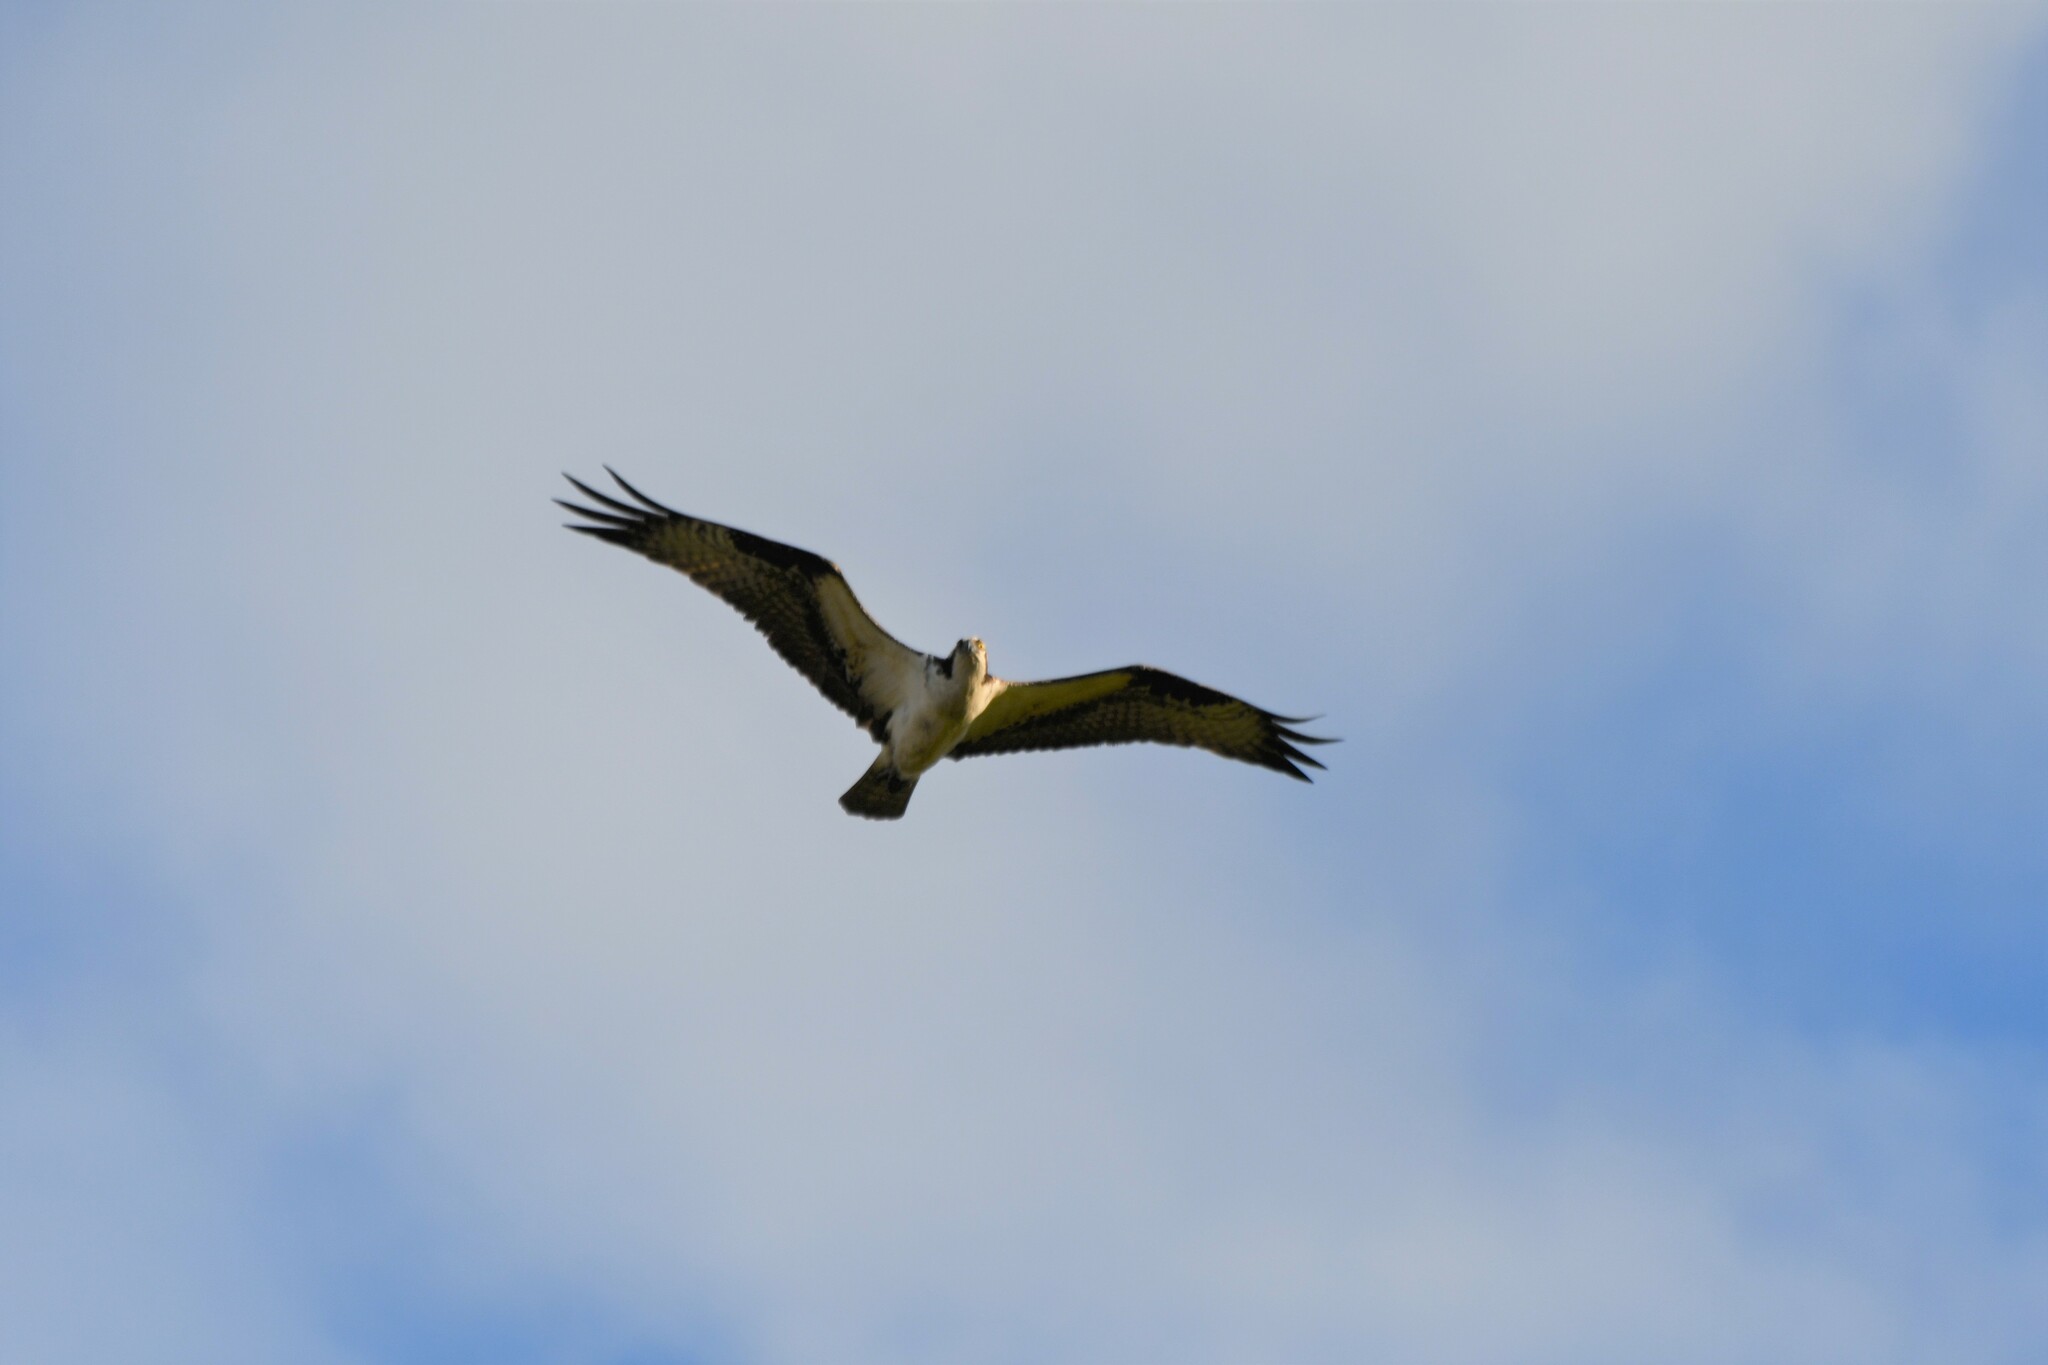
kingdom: Animalia
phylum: Chordata
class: Aves
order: Accipitriformes
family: Pandionidae
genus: Pandion
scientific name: Pandion haliaetus
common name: Osprey
